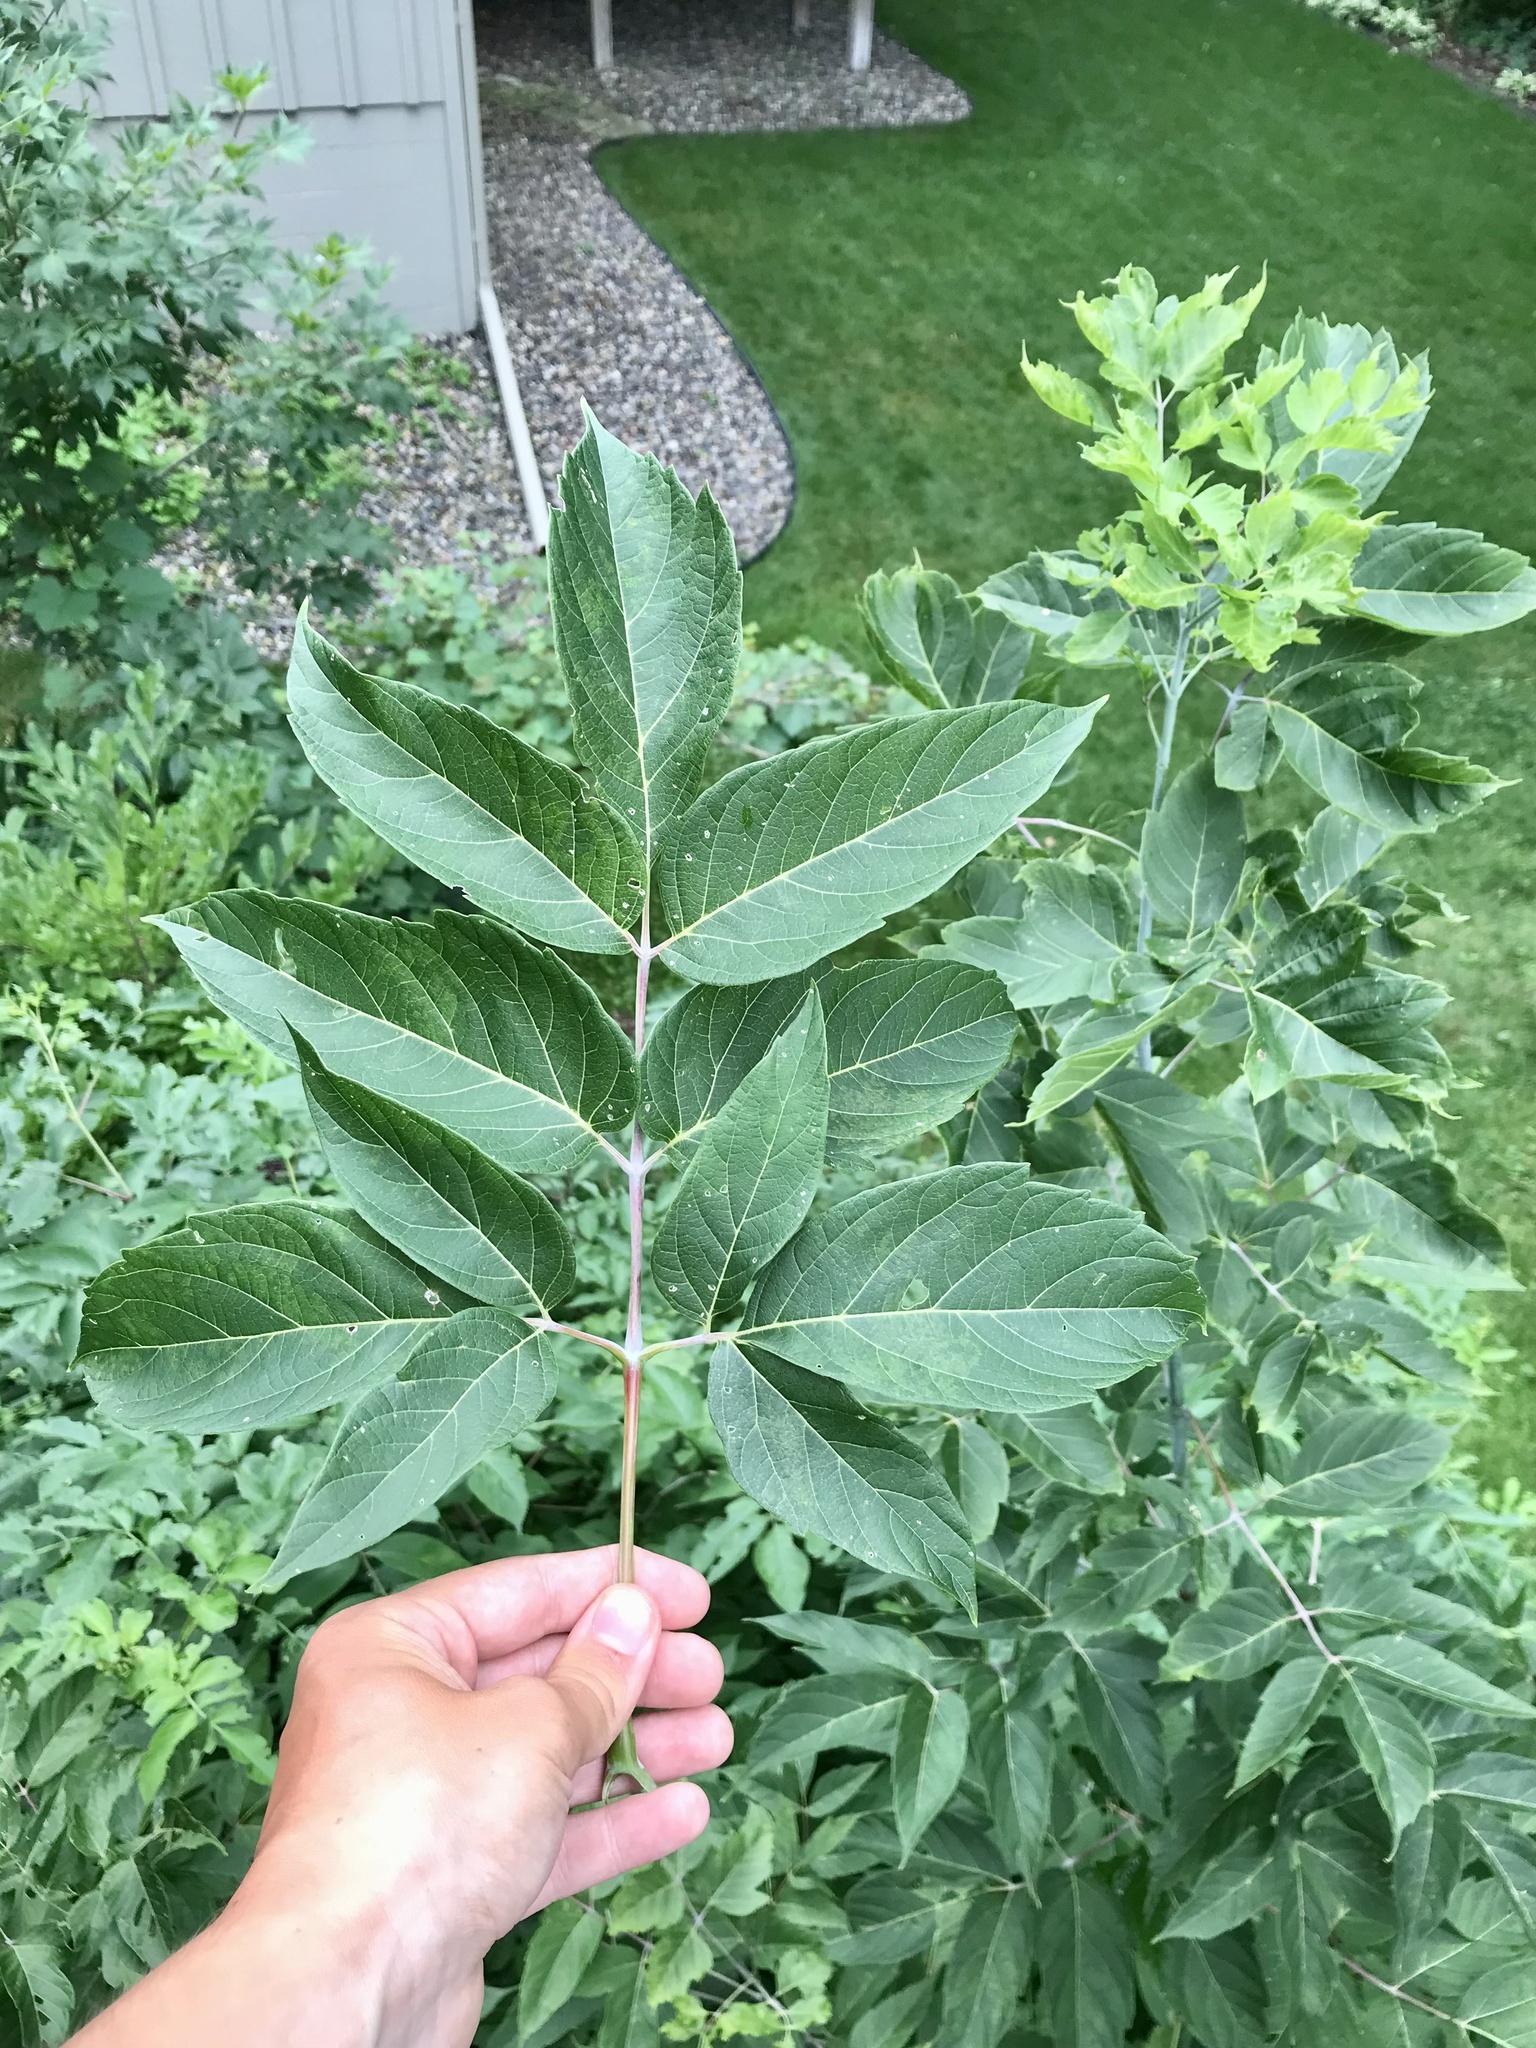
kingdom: Plantae
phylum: Tracheophyta
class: Magnoliopsida
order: Sapindales
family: Sapindaceae
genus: Acer
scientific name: Acer negundo
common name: Ashleaf maple
